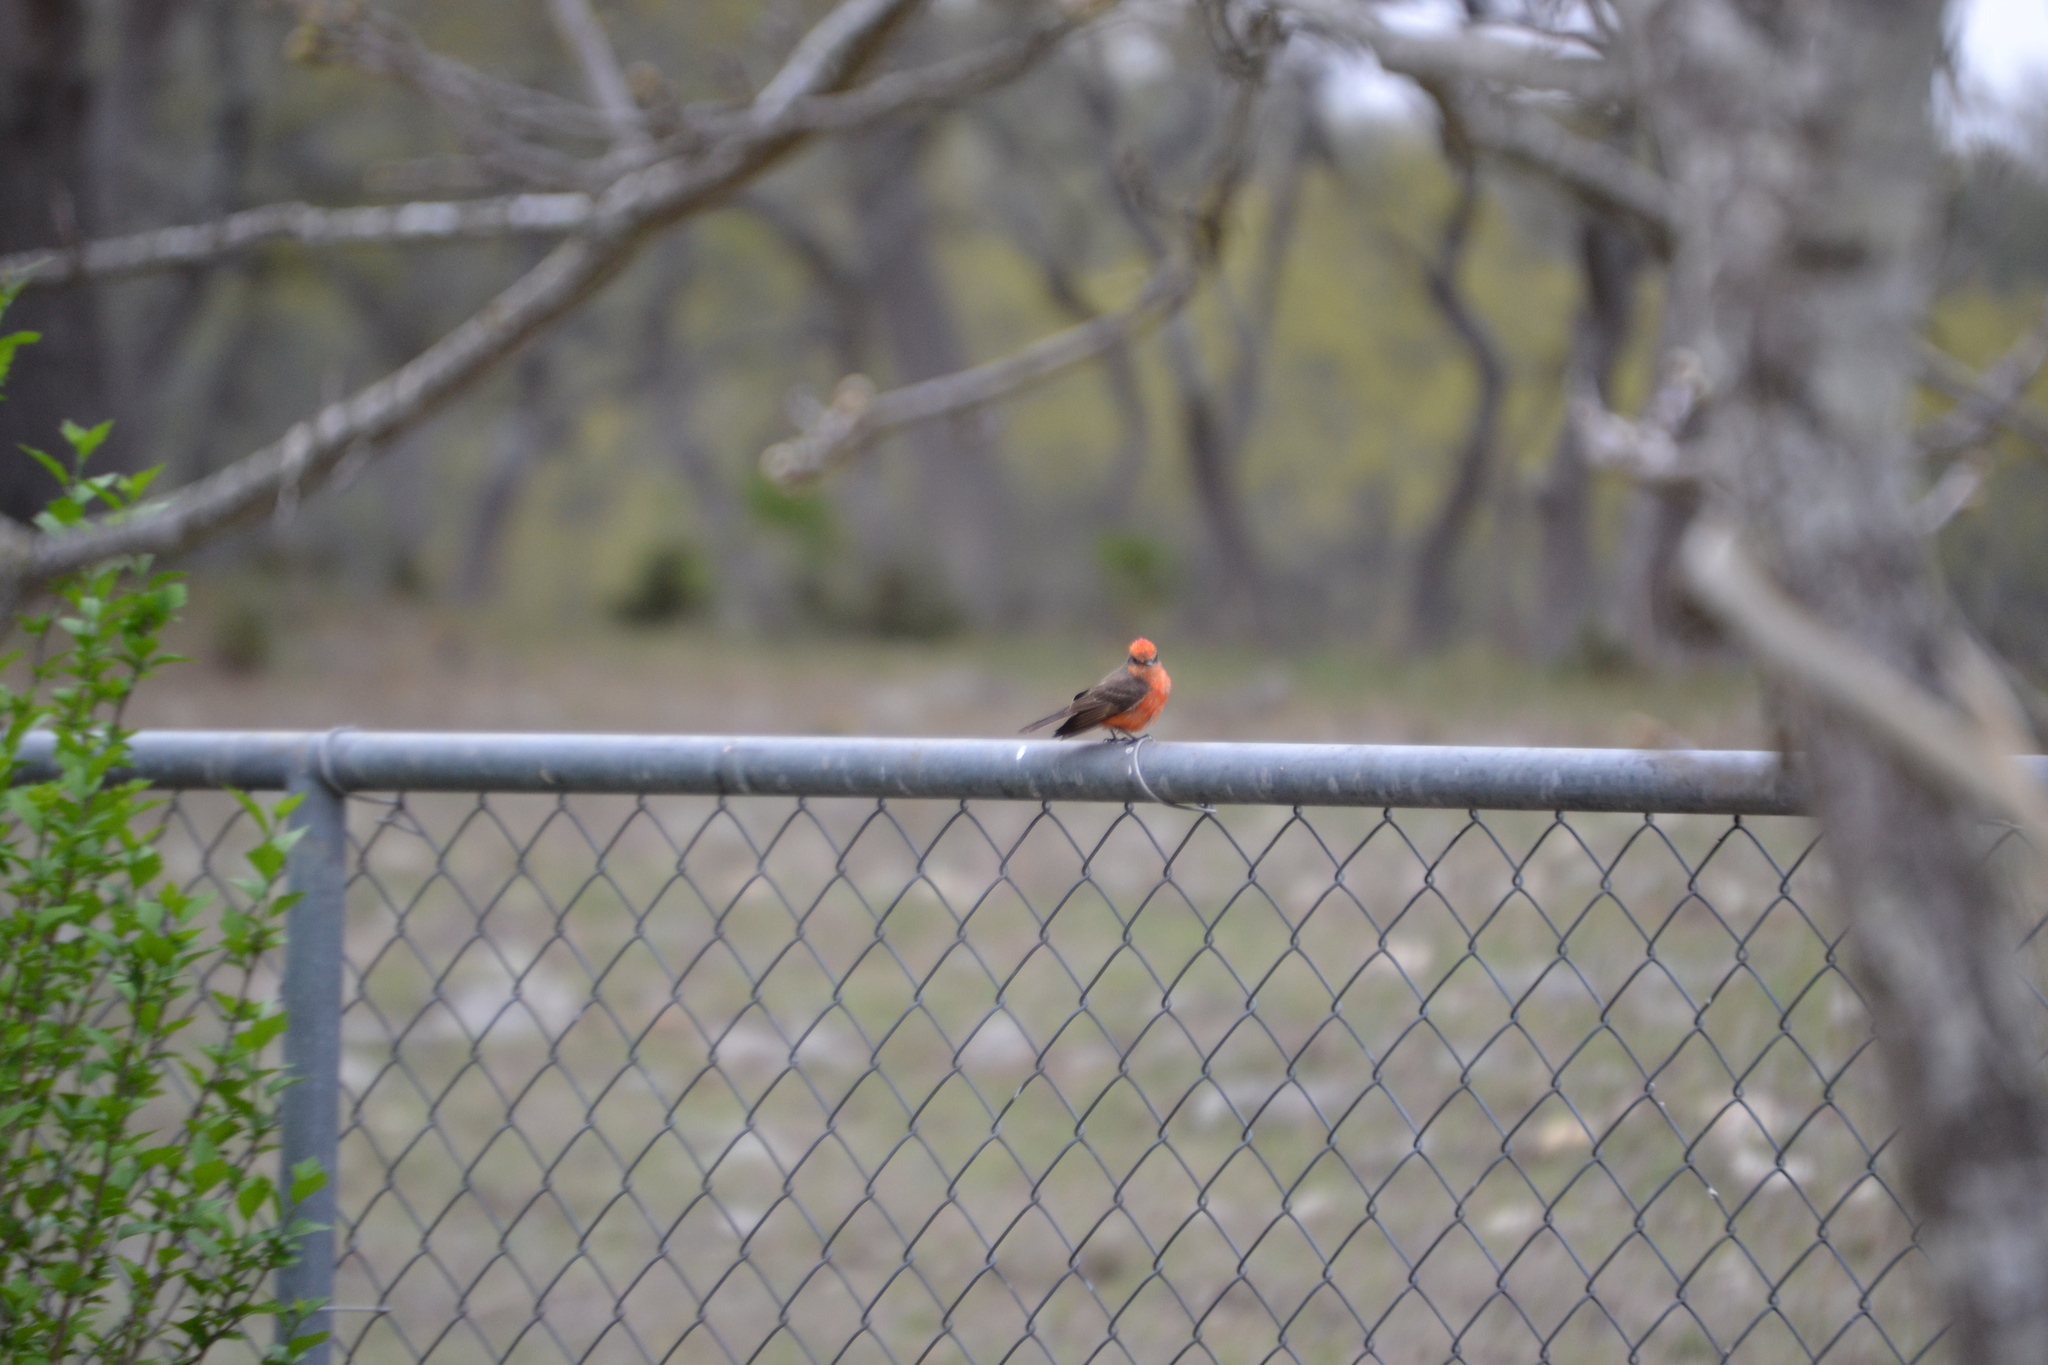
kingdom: Animalia
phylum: Chordata
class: Aves
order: Passeriformes
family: Tyrannidae
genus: Pyrocephalus
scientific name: Pyrocephalus rubinus
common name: Vermilion flycatcher
